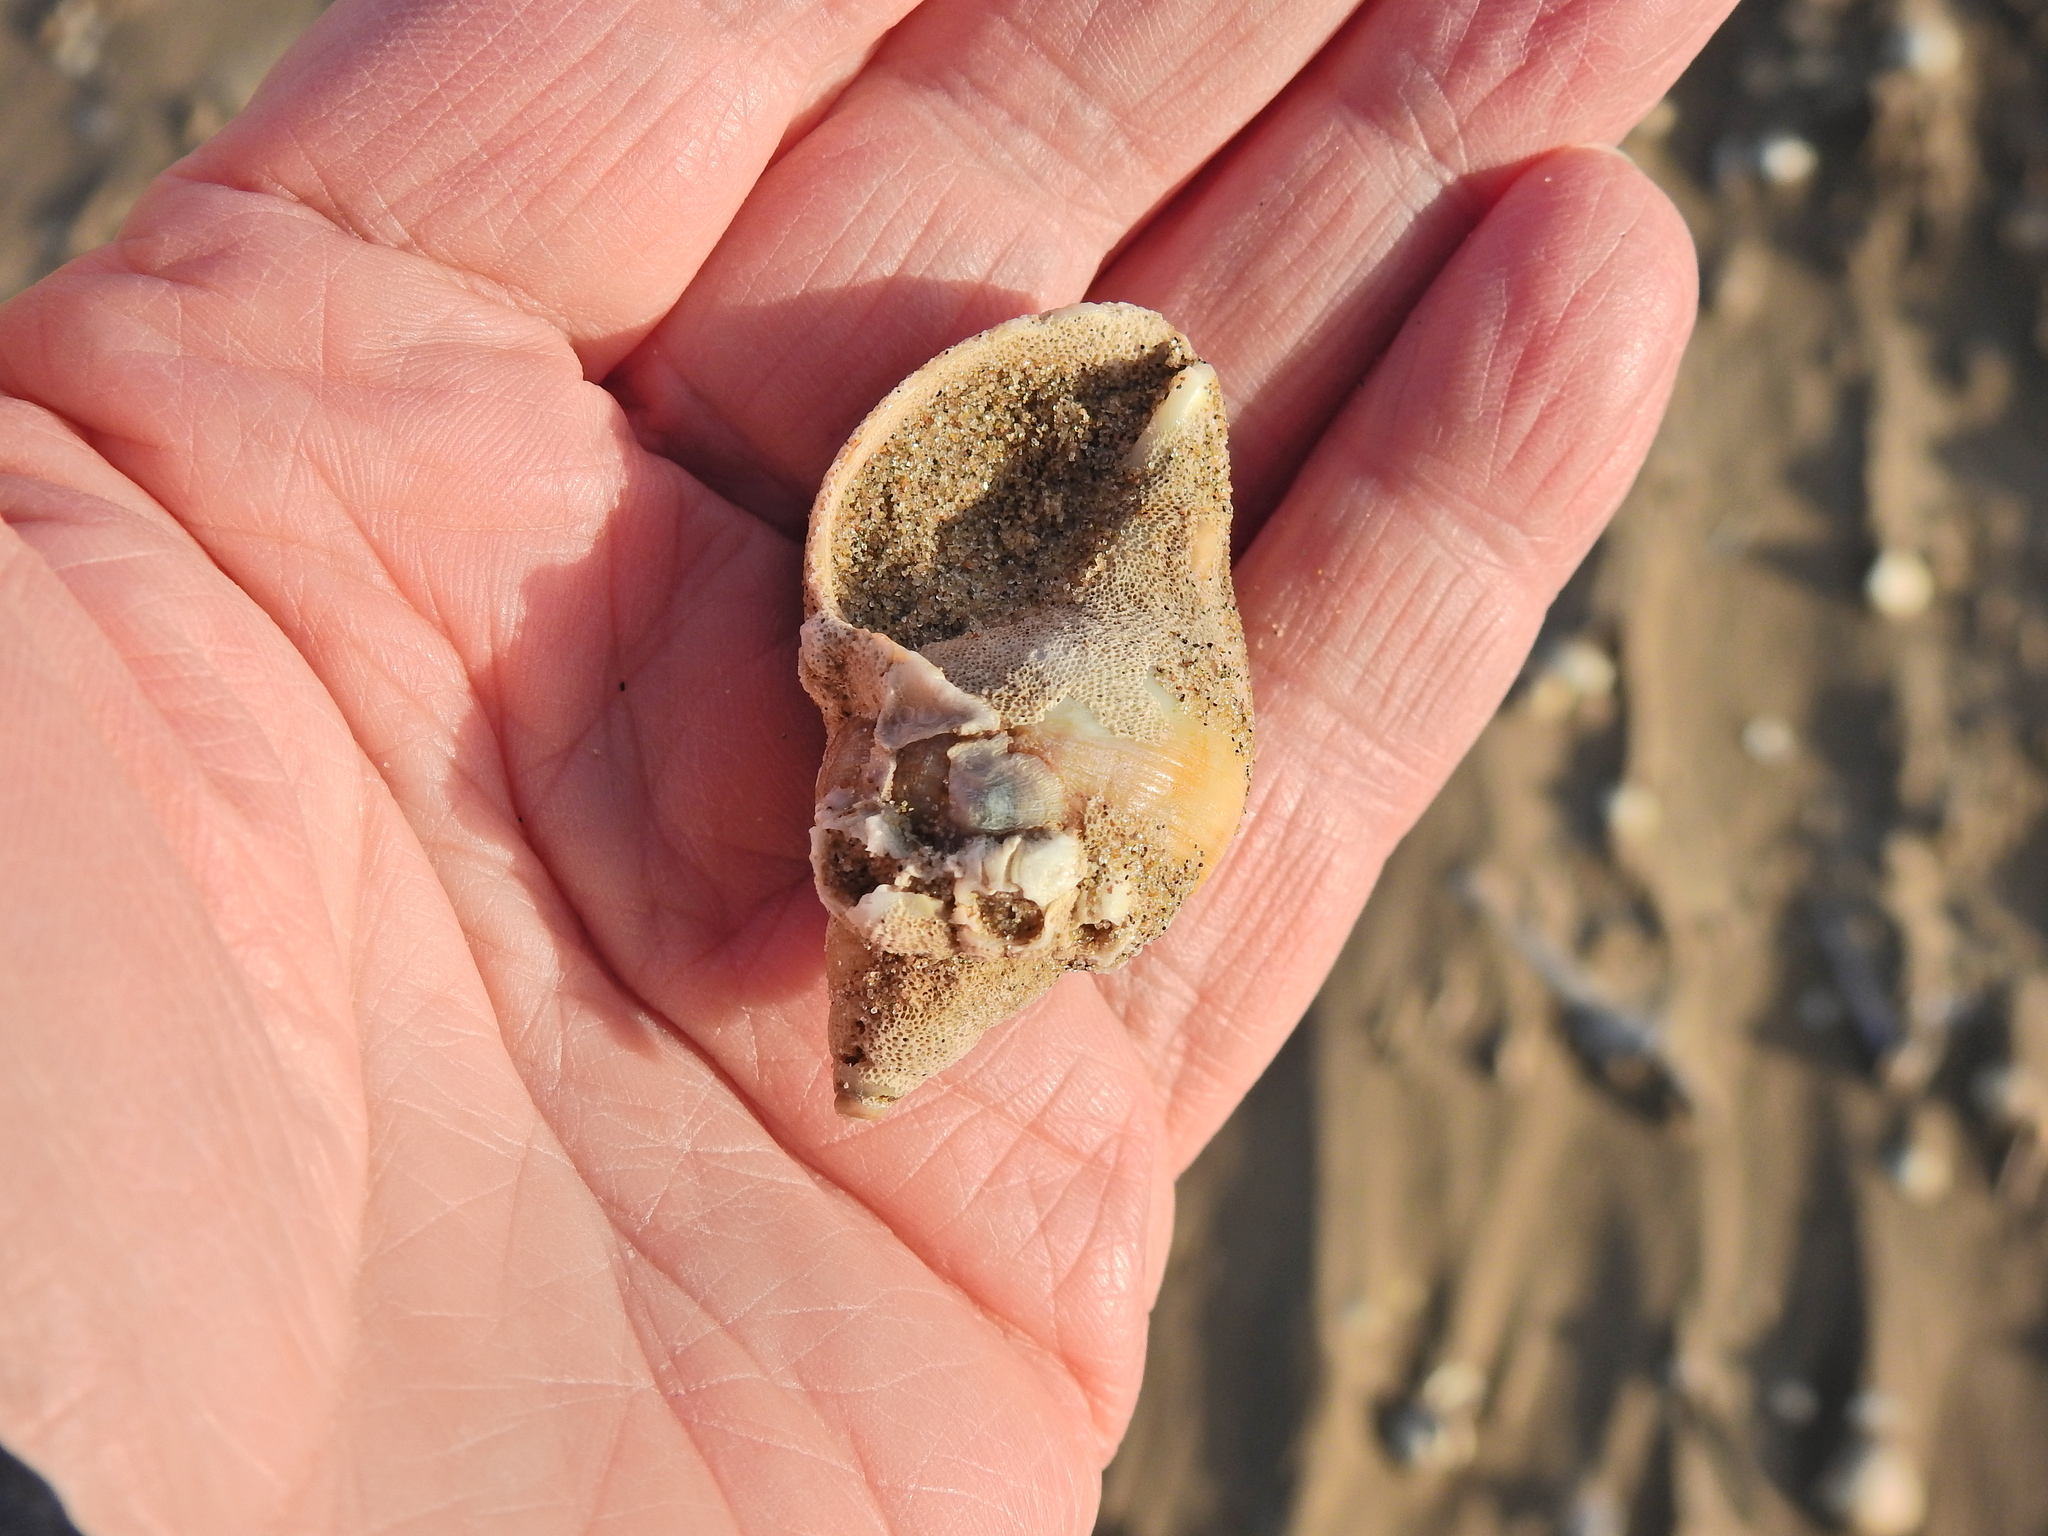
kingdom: Animalia
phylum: Mollusca
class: Gastropoda
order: Neogastropoda
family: Buccinidae
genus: Buccinum
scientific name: Buccinum undatum
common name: Common whelk
